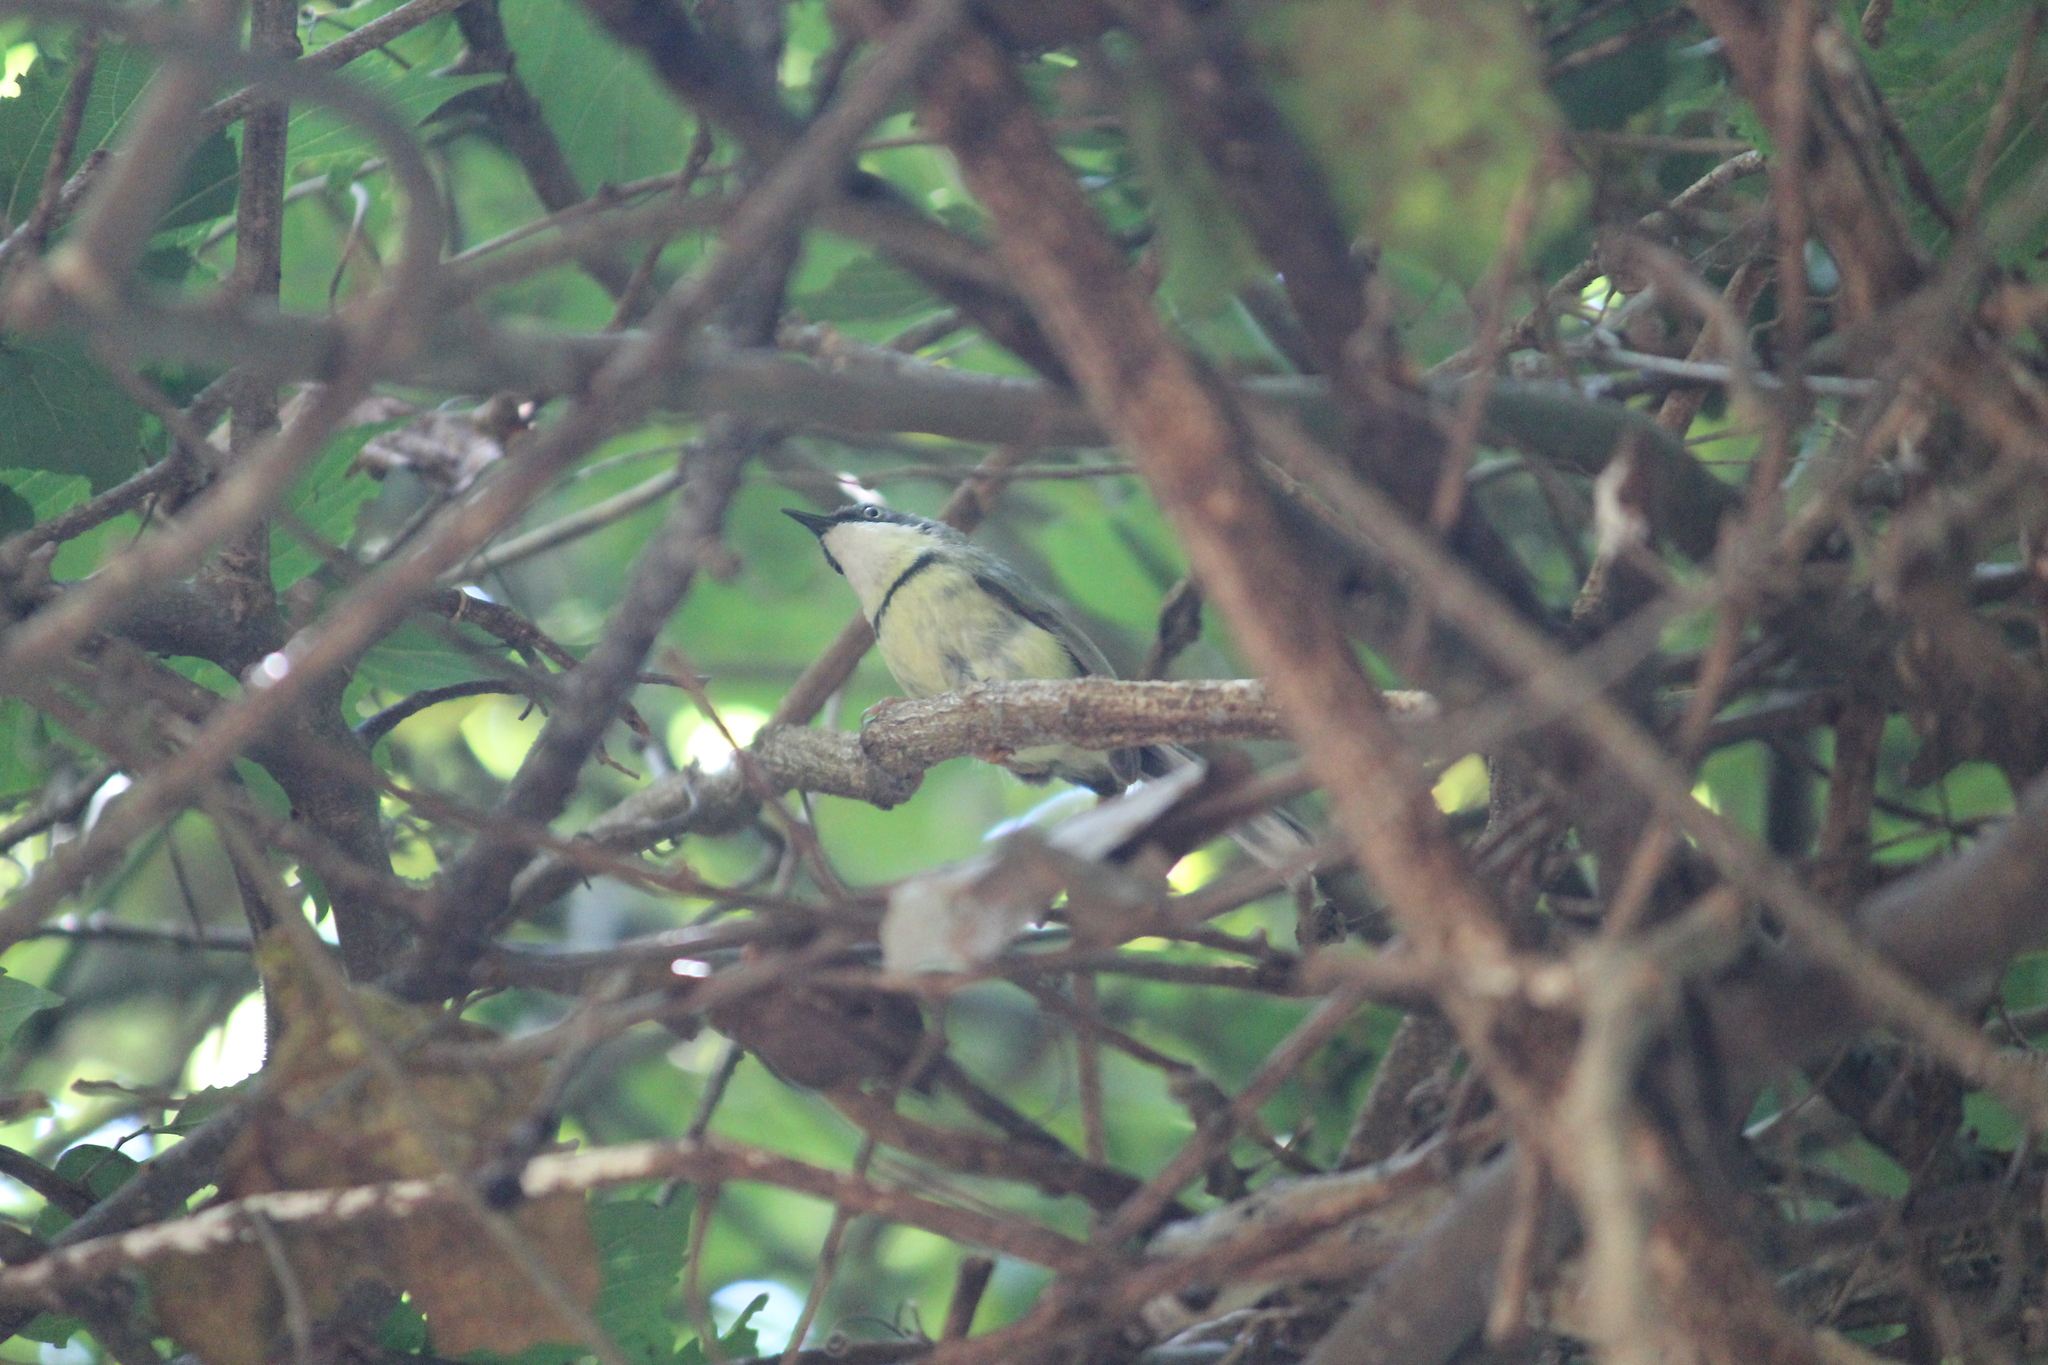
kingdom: Animalia
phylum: Chordata
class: Aves
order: Passeriformes
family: Cisticolidae
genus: Apalis
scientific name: Apalis thoracica
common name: Bar-throated apalis
